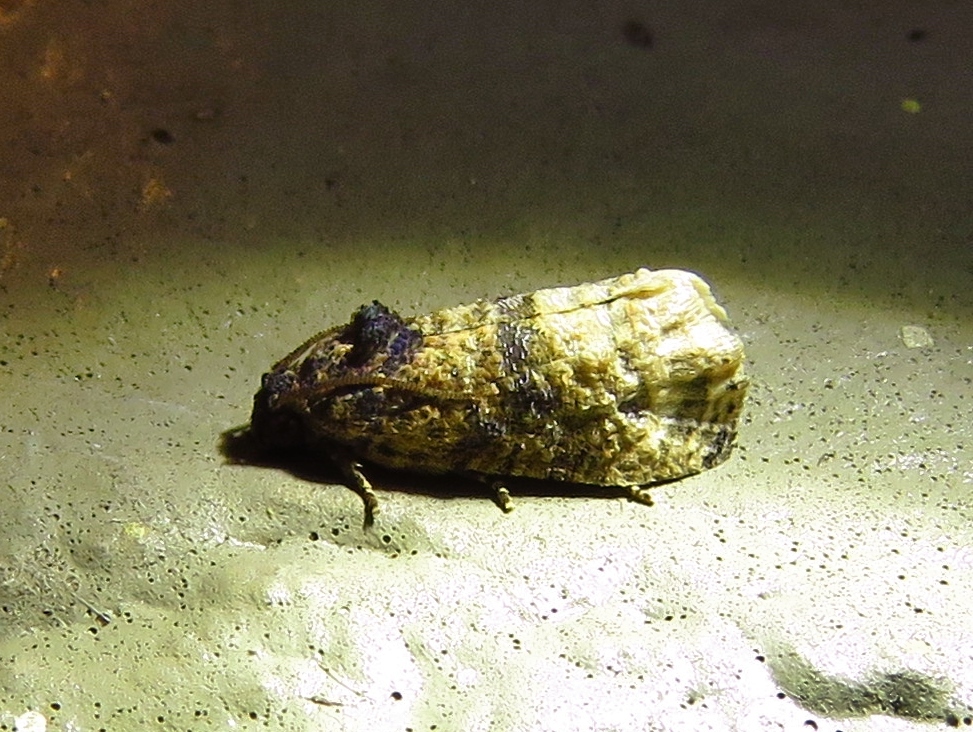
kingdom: Animalia
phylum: Arthropoda
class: Insecta
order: Lepidoptera
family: Tortricidae
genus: Ecdytolopha
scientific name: Ecdytolopha mana
